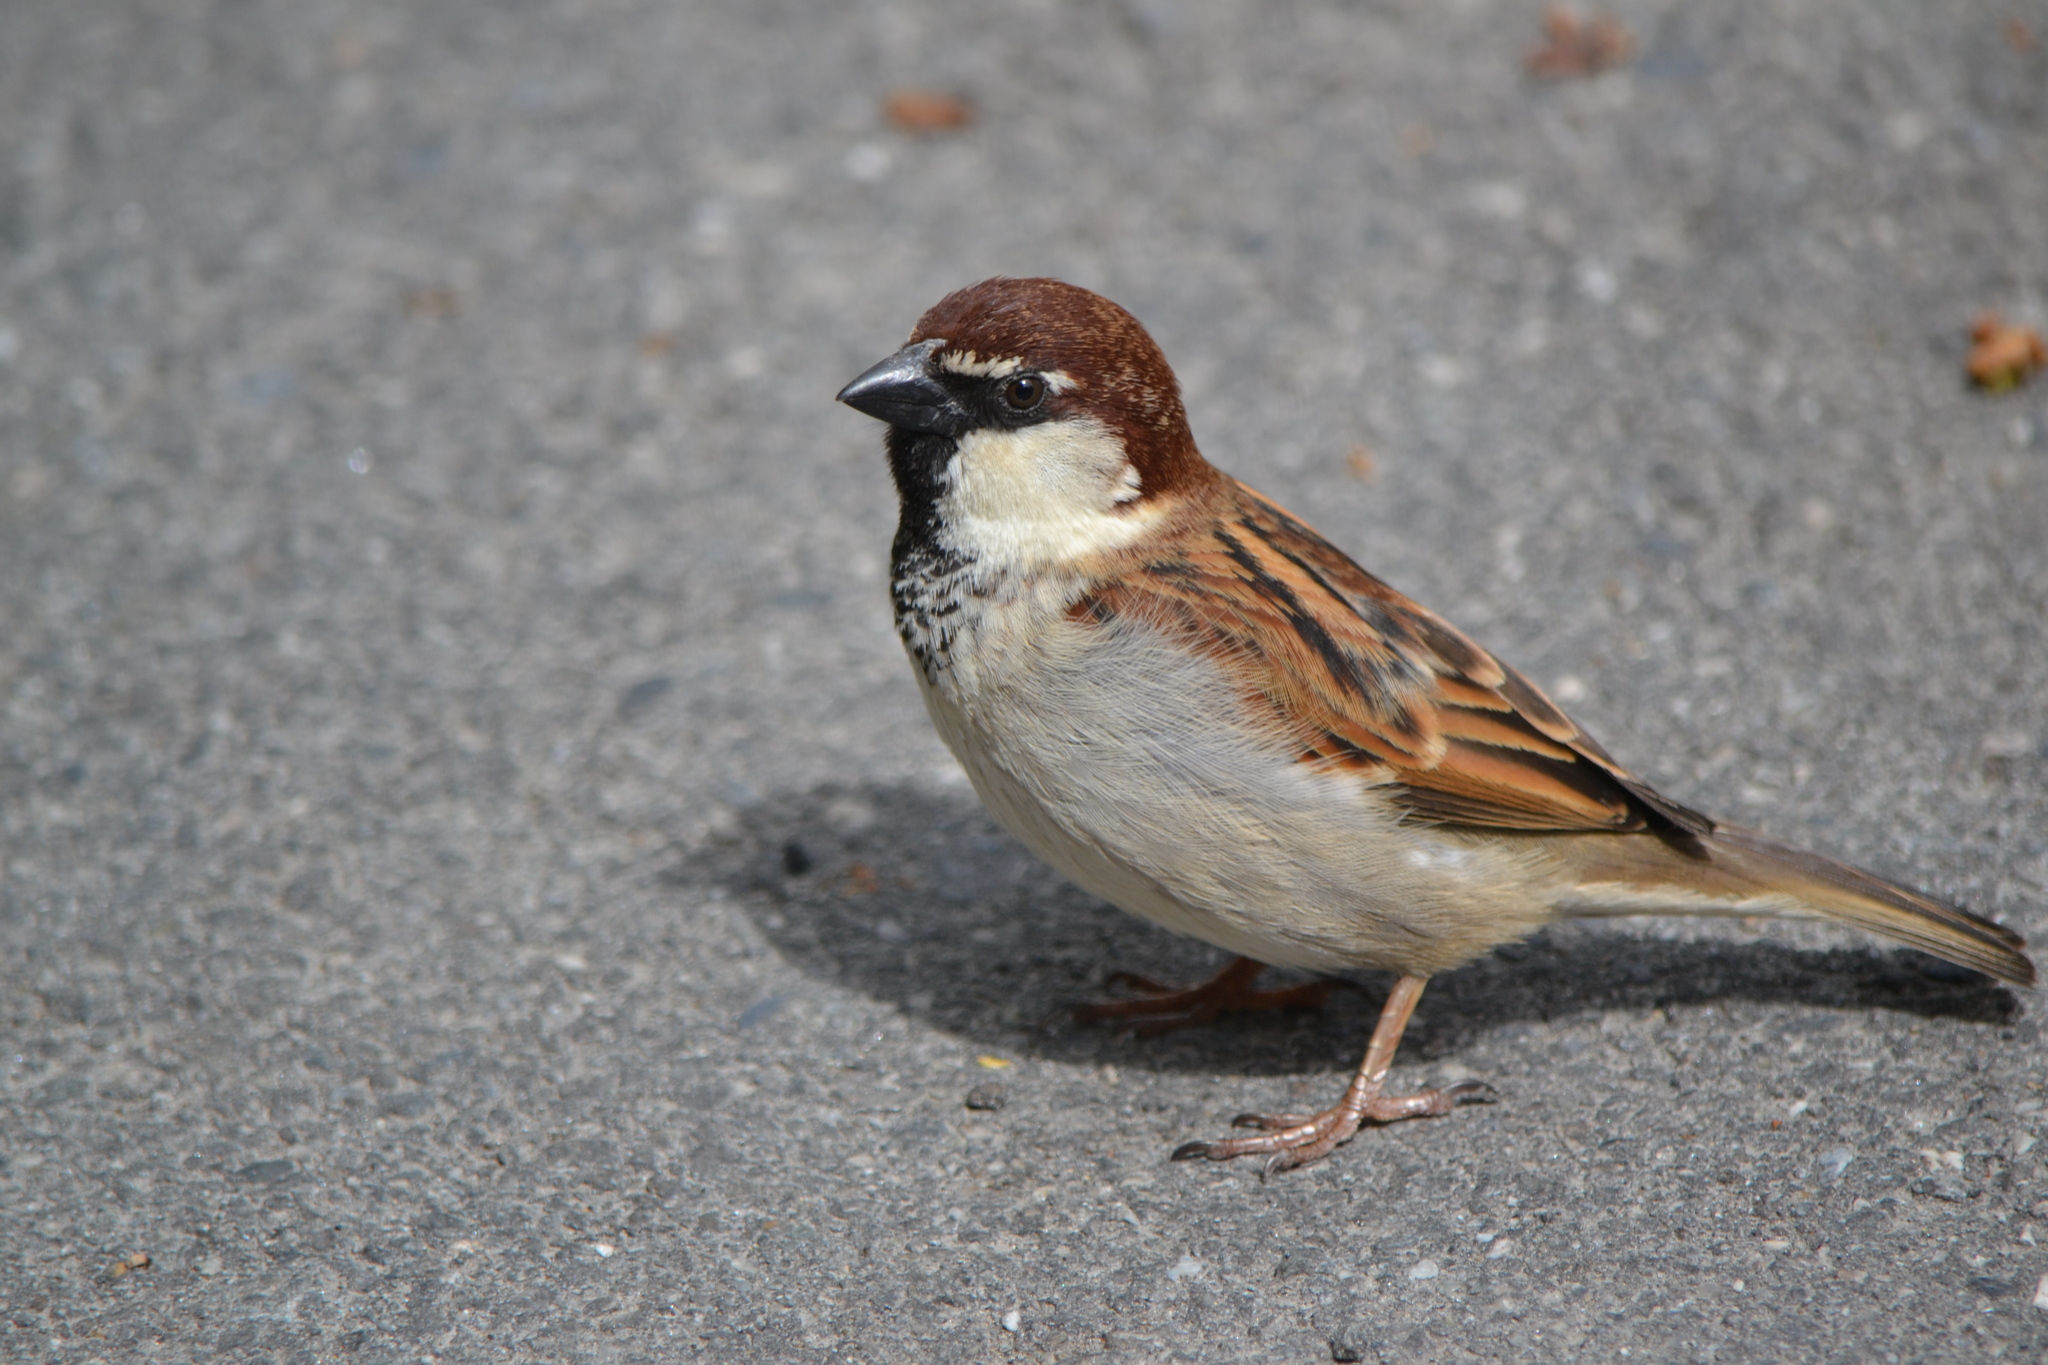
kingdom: Animalia
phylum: Chordata
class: Aves
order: Passeriformes
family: Passeridae
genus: Passer
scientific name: Passer italiae
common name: Italian sparrow
